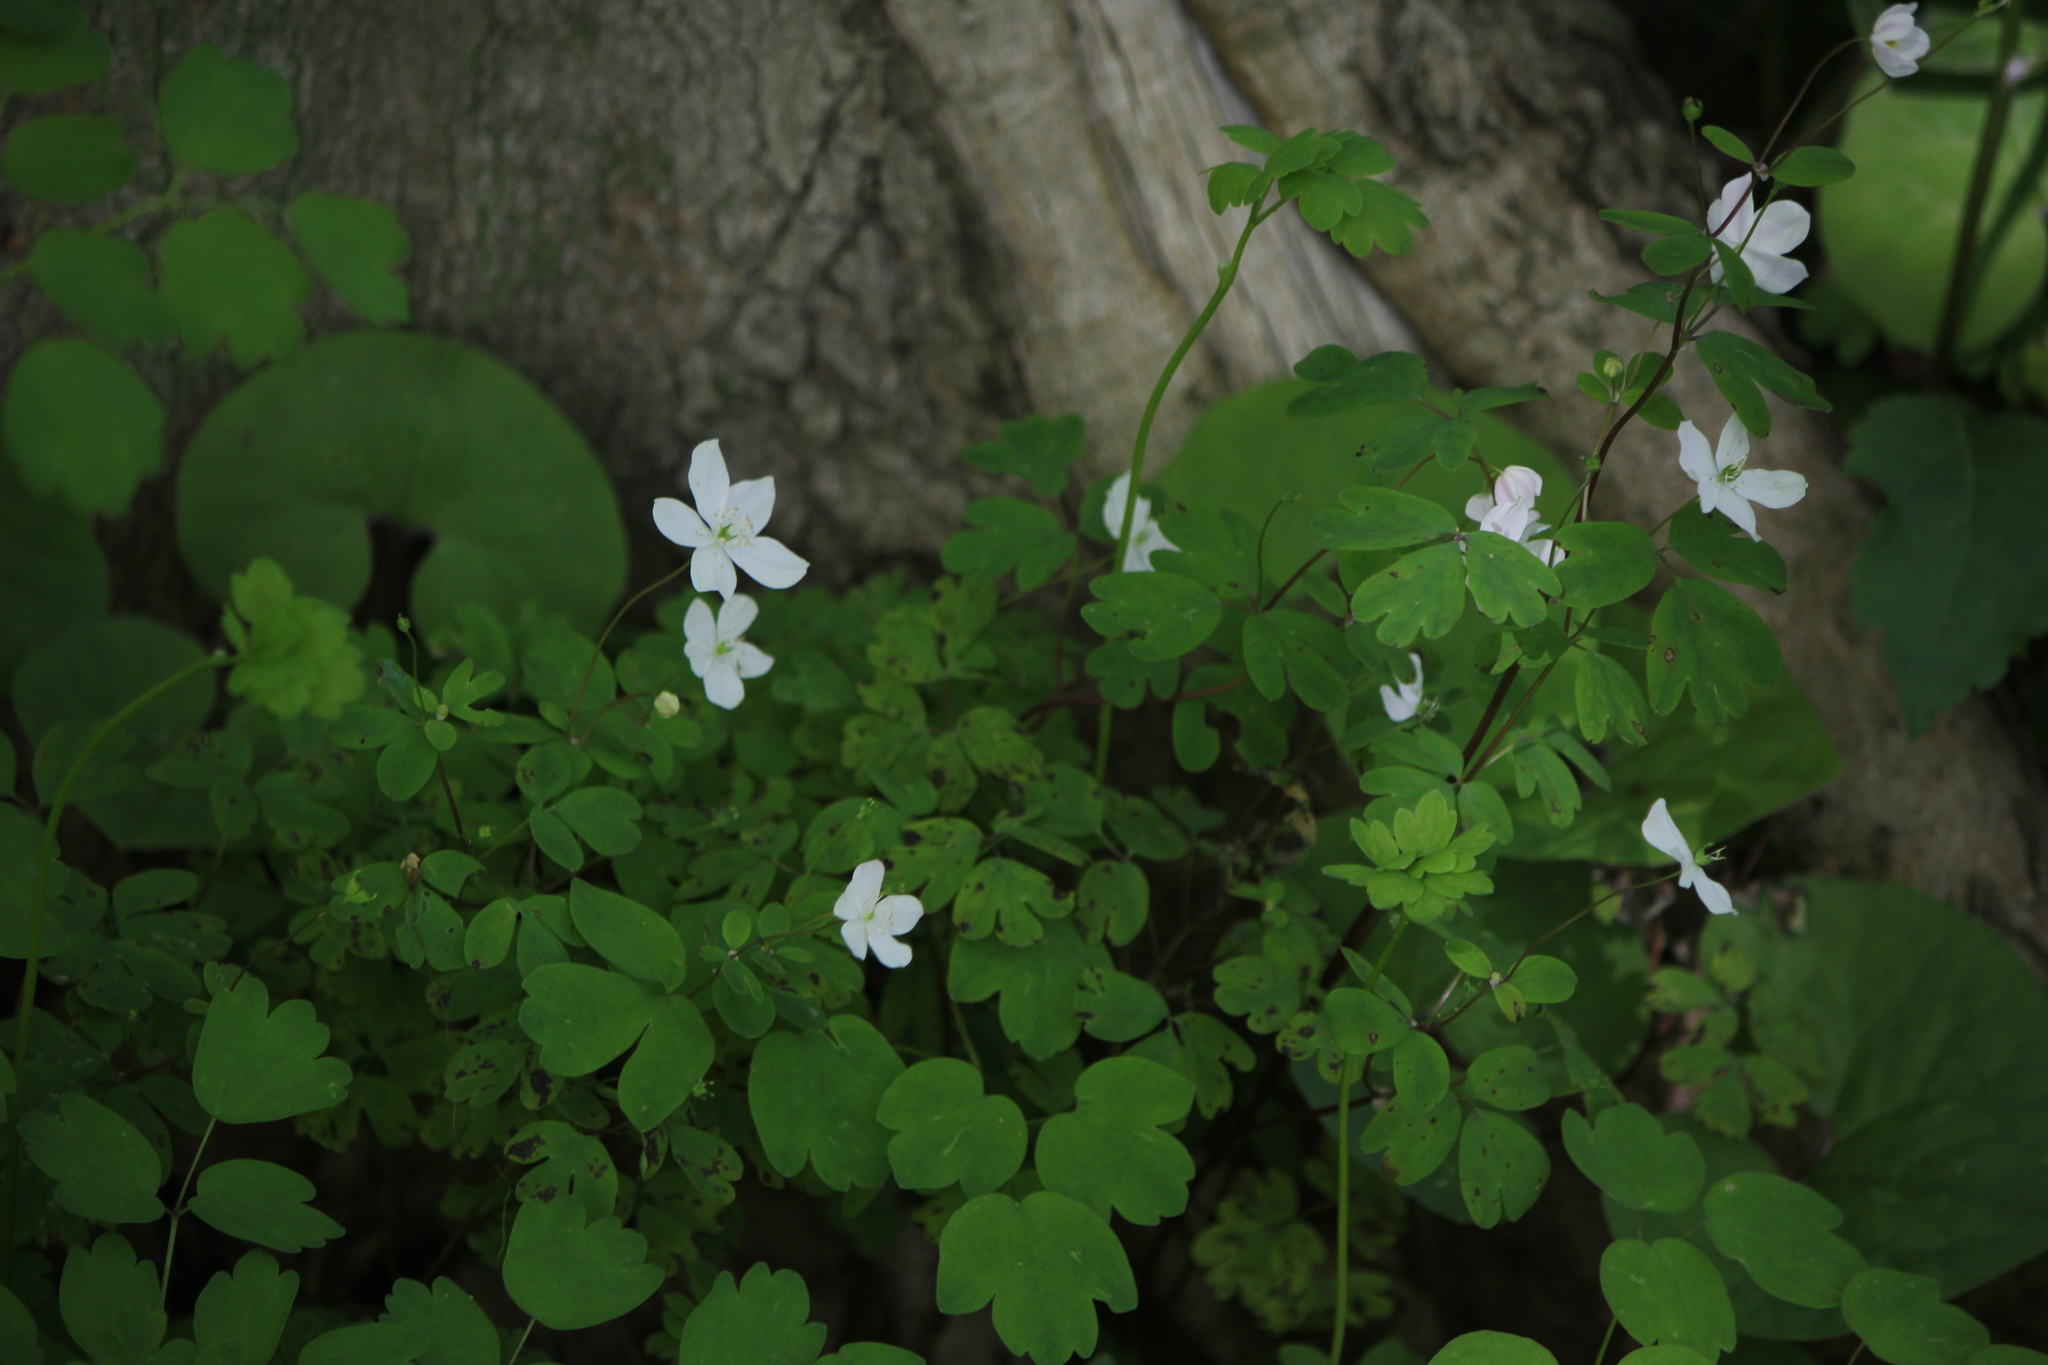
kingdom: Plantae
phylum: Tracheophyta
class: Magnoliopsida
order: Ranunculales
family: Ranunculaceae
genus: Enemion
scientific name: Enemion biternatum
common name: Eastern false rue-anemone
